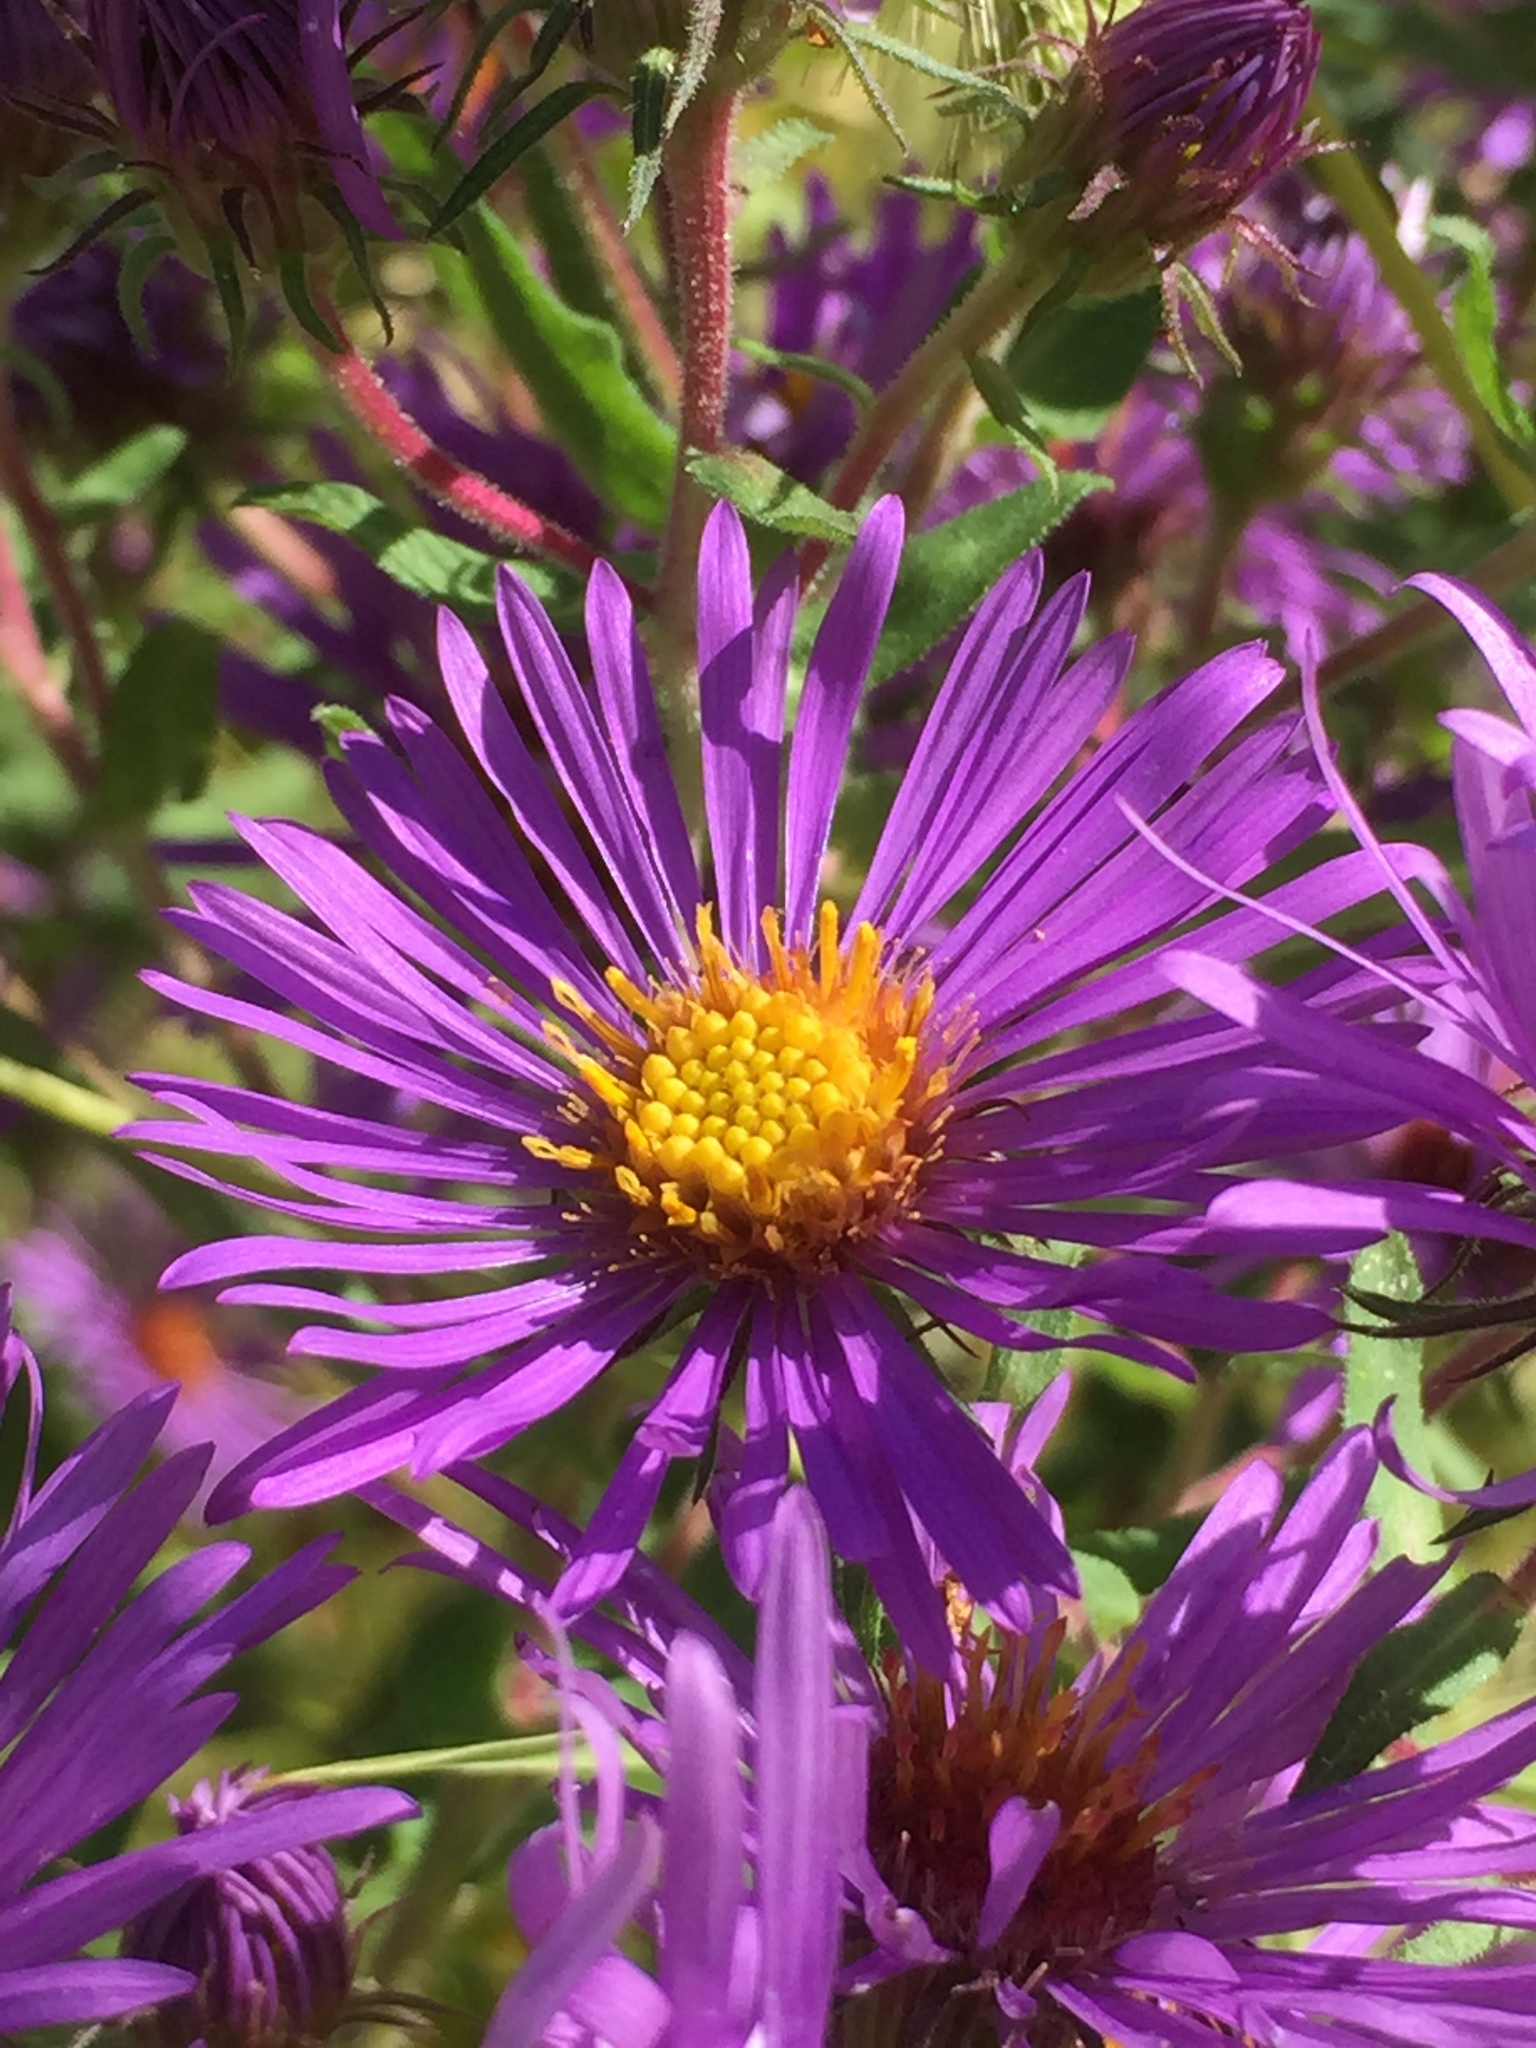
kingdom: Plantae
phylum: Tracheophyta
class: Magnoliopsida
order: Asterales
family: Asteraceae
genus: Symphyotrichum
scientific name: Symphyotrichum novae-angliae
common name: Michaelmas daisy
